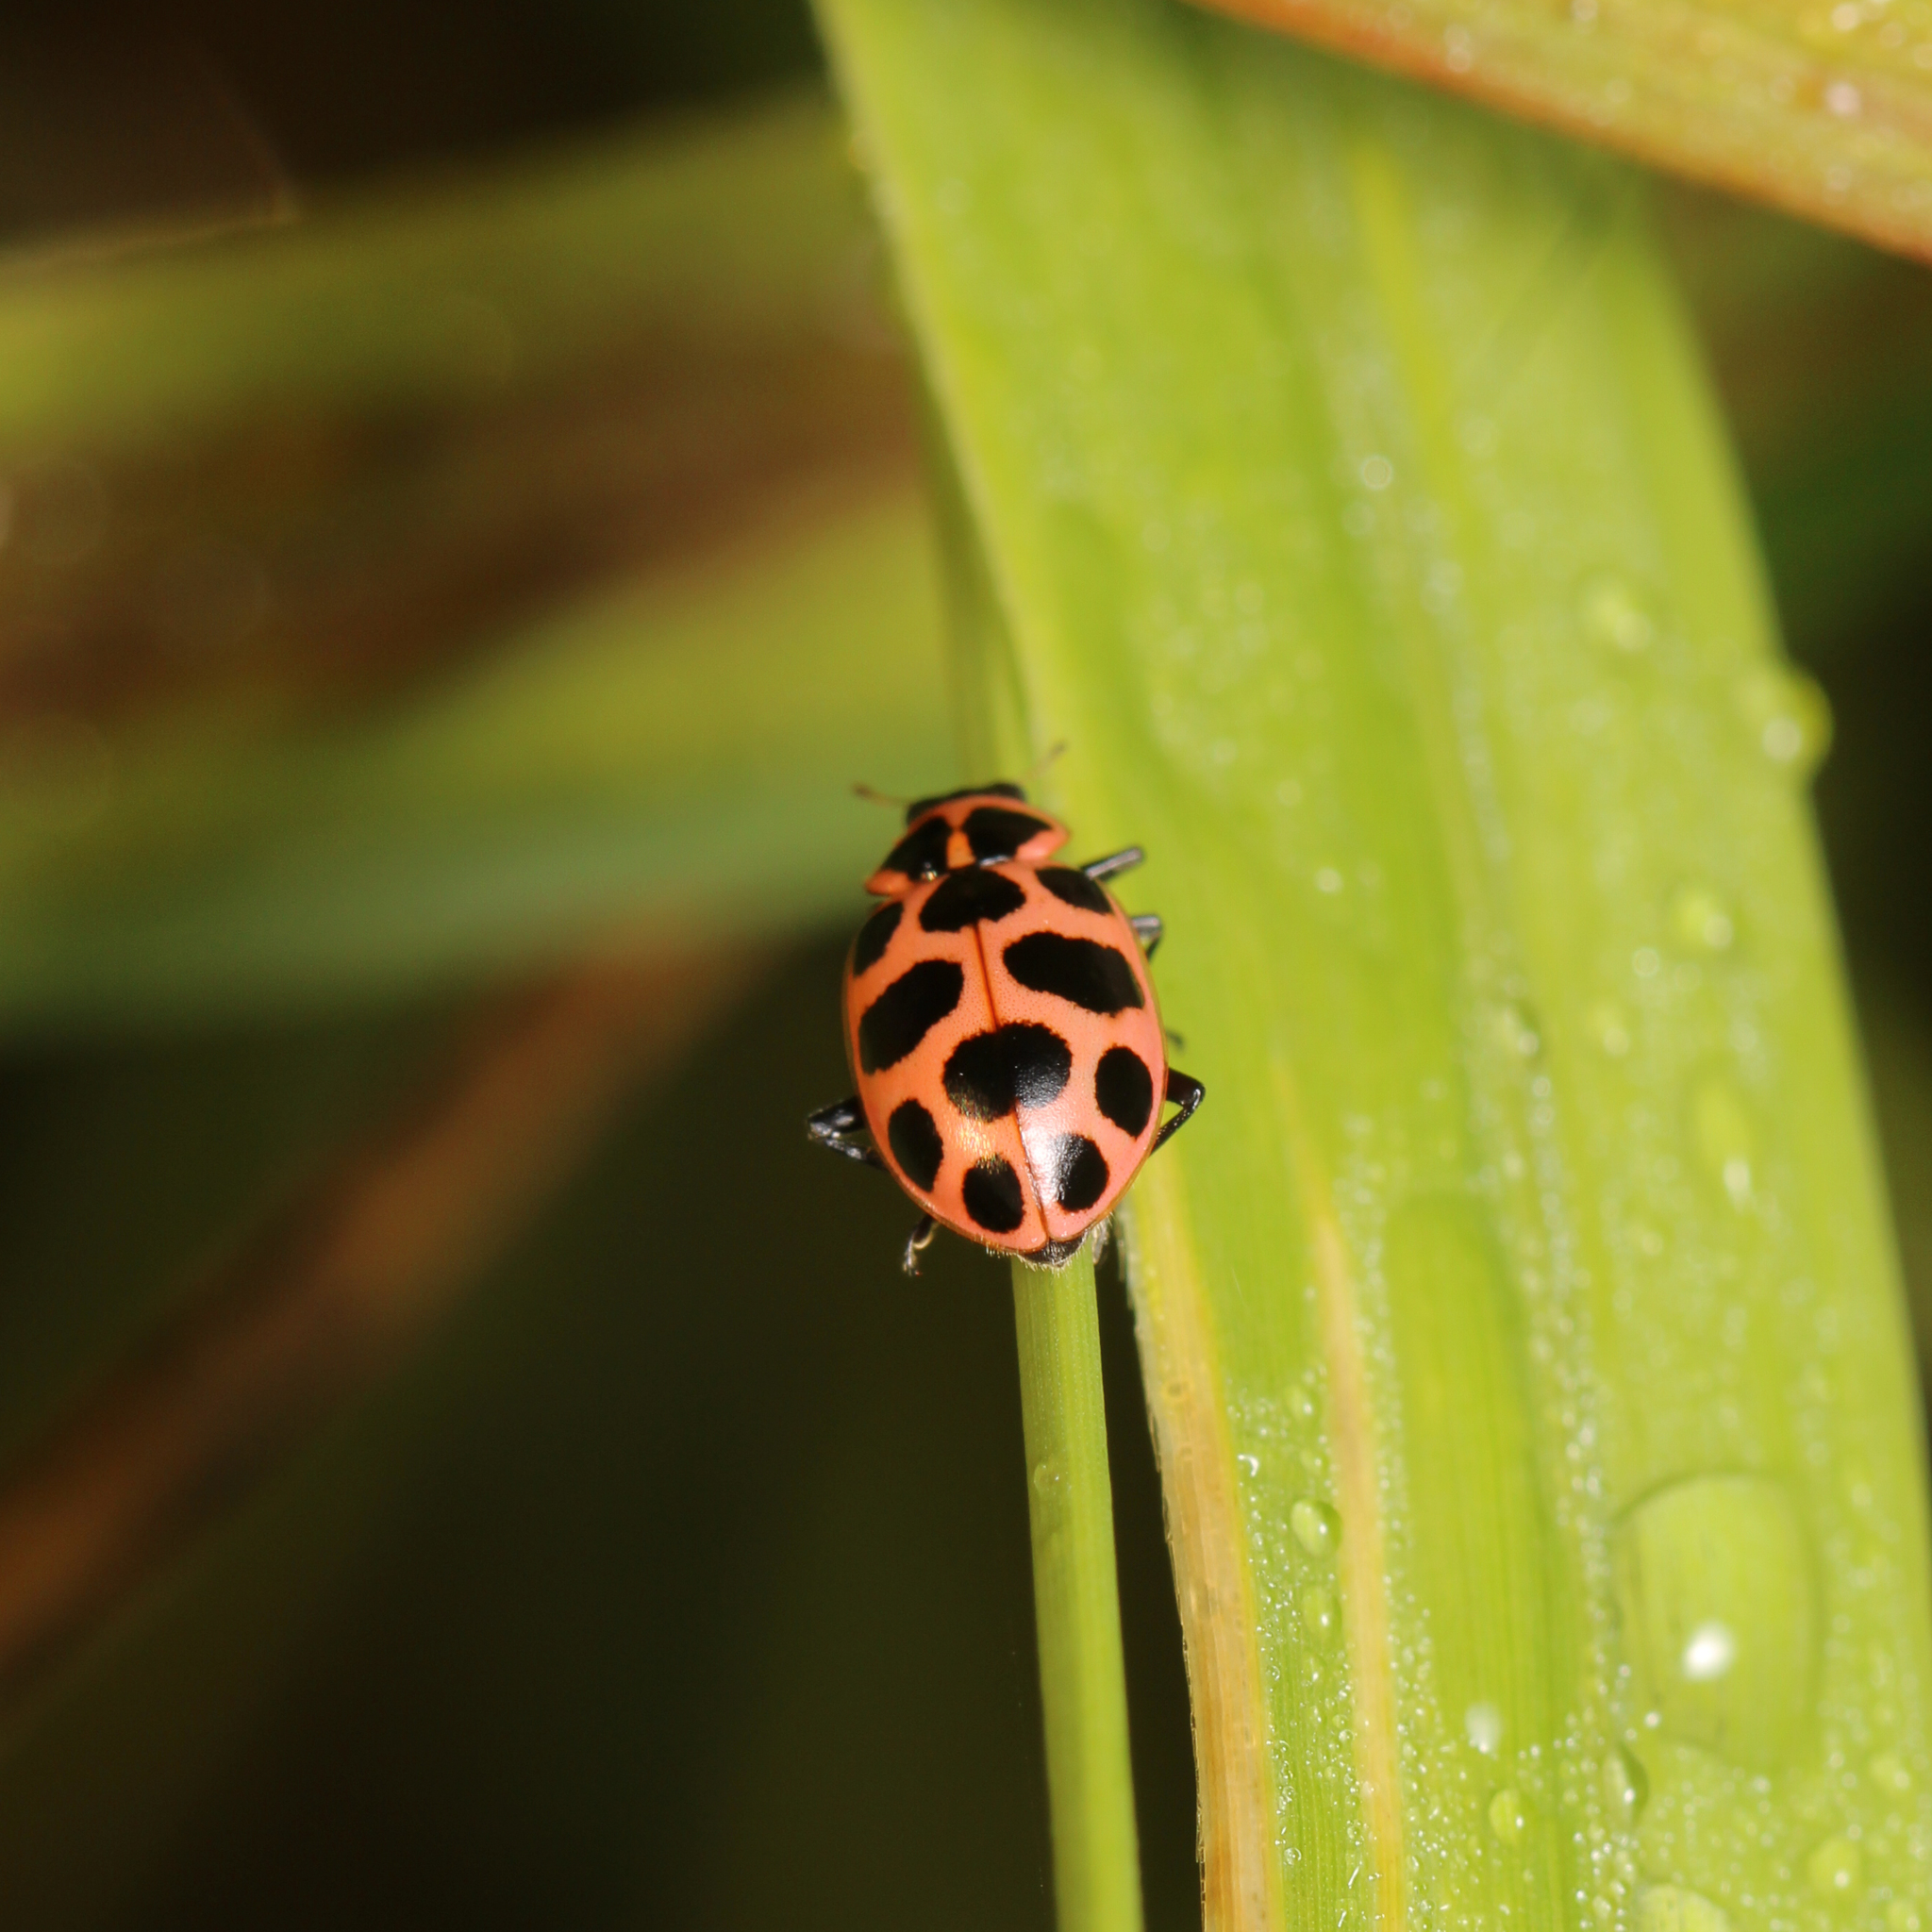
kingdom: Animalia
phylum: Arthropoda
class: Insecta
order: Coleoptera
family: Coccinellidae
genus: Coleomegilla
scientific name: Coleomegilla maculata
